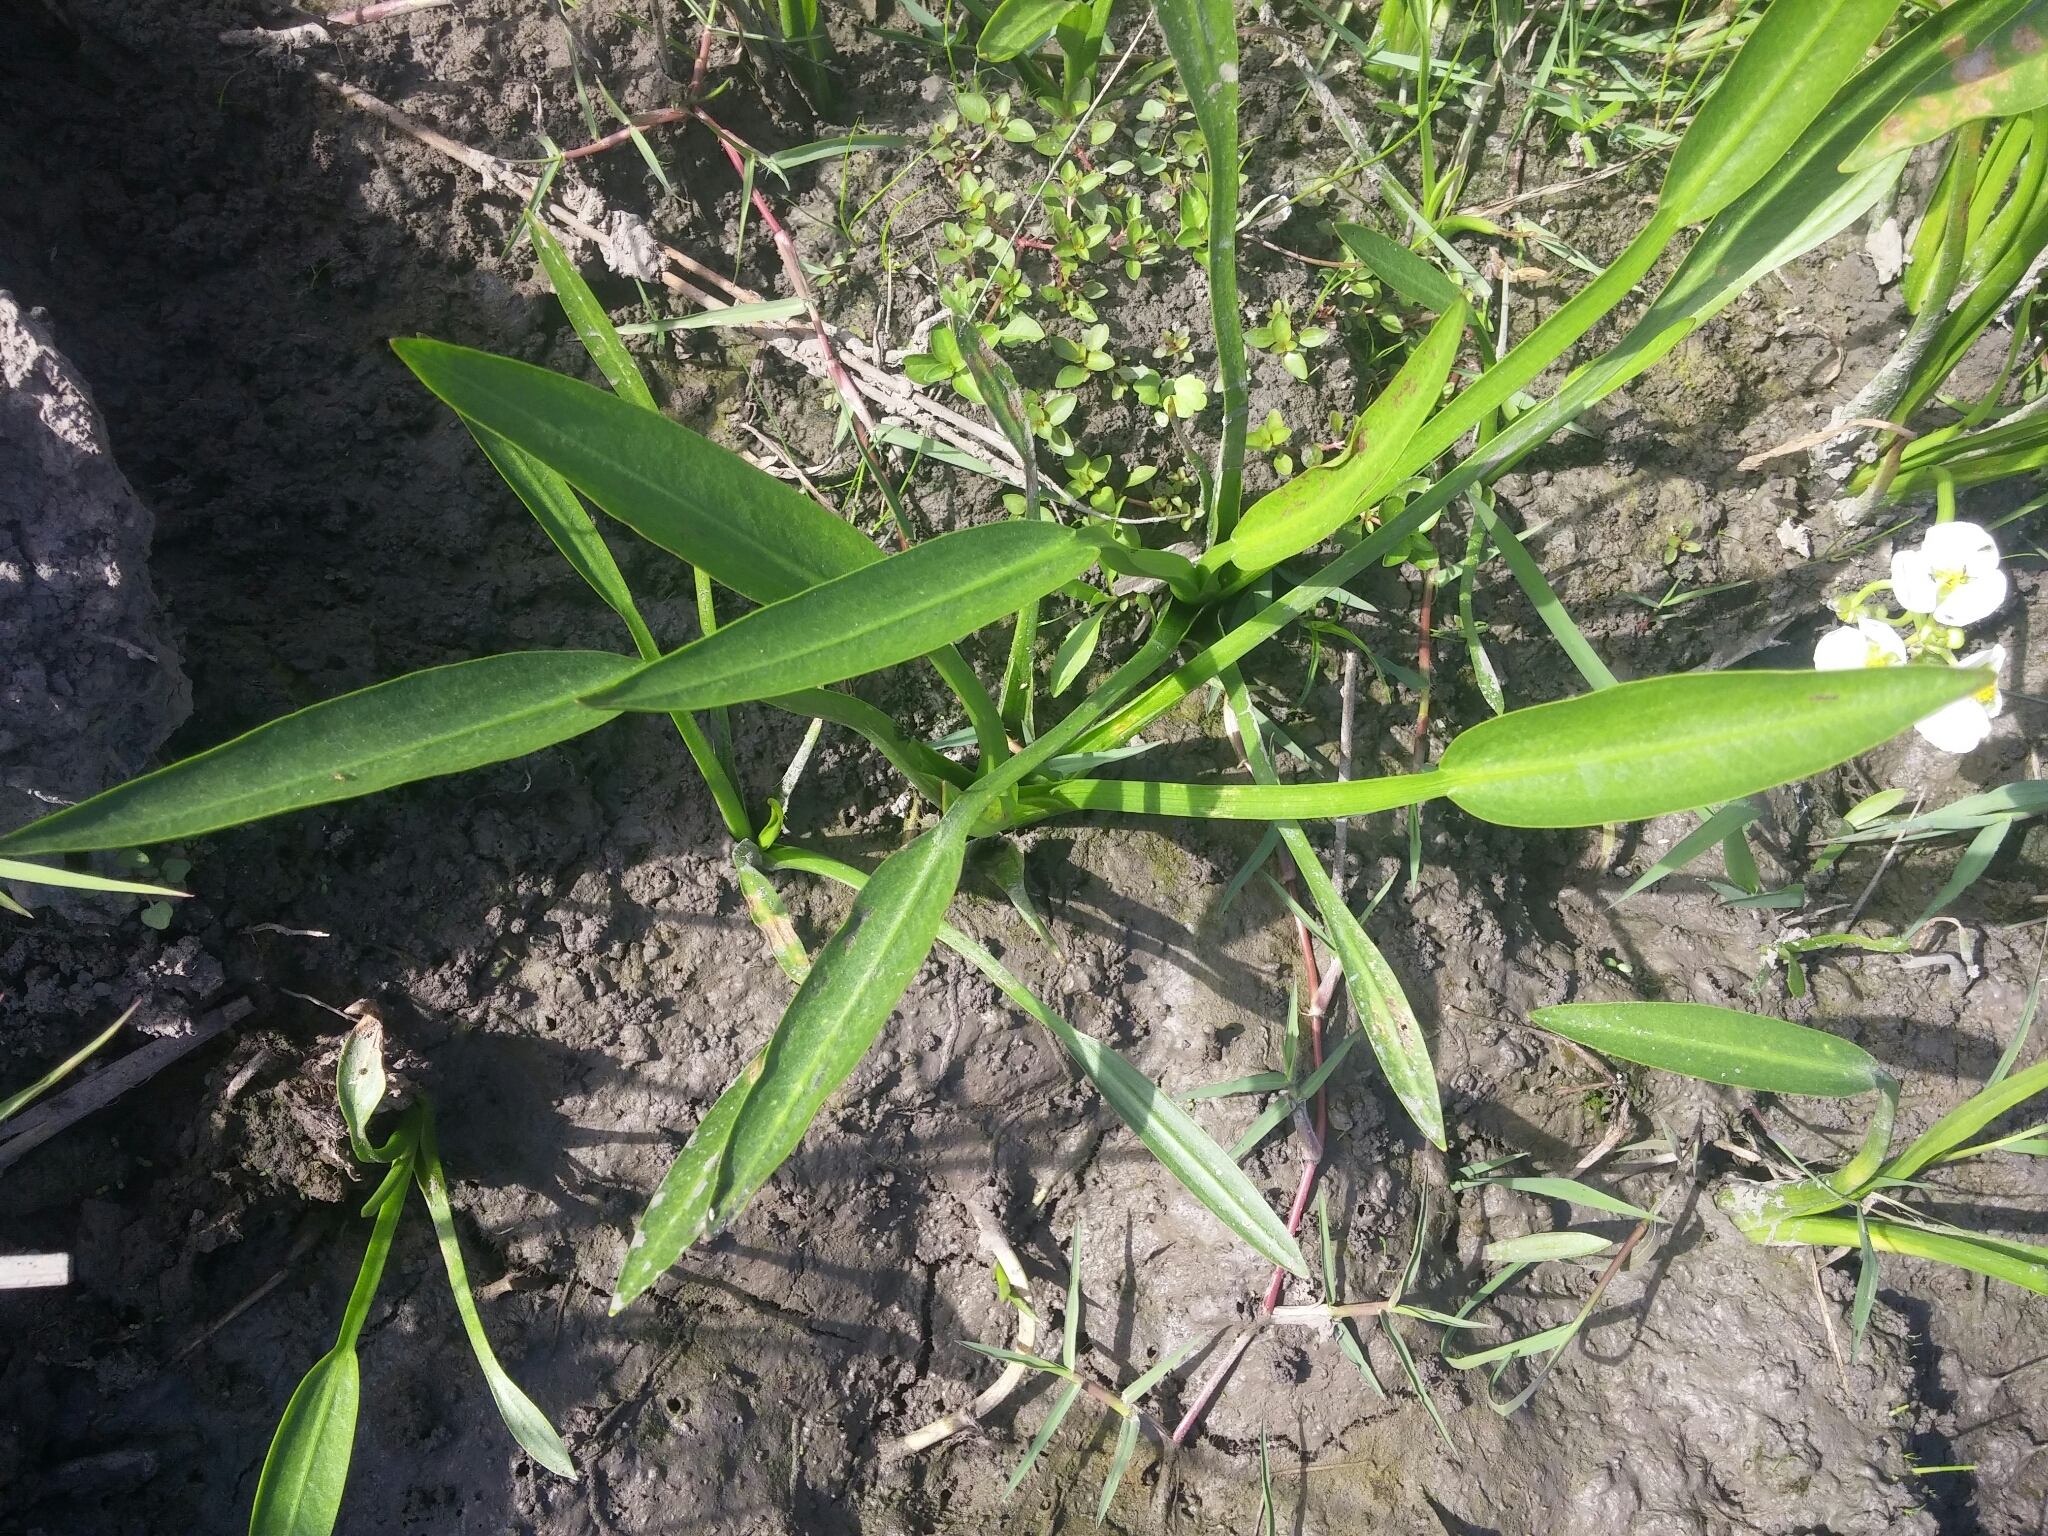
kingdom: Plantae
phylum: Tracheophyta
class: Liliopsida
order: Alismatales
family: Alismataceae
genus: Sagittaria
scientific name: Sagittaria platyphylla
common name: Broad-leaf arrowhead
